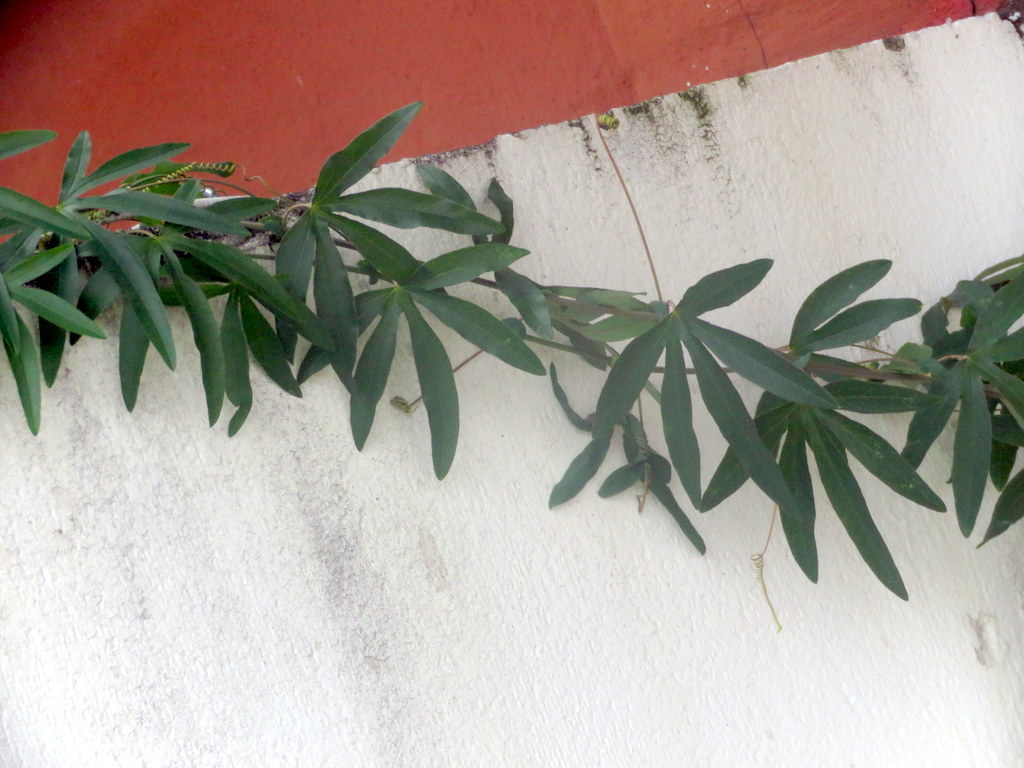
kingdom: Plantae
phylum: Tracheophyta
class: Magnoliopsida
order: Malpighiales
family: Passifloraceae
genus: Passiflora
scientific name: Passiflora caerulea
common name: Blue passionflower
